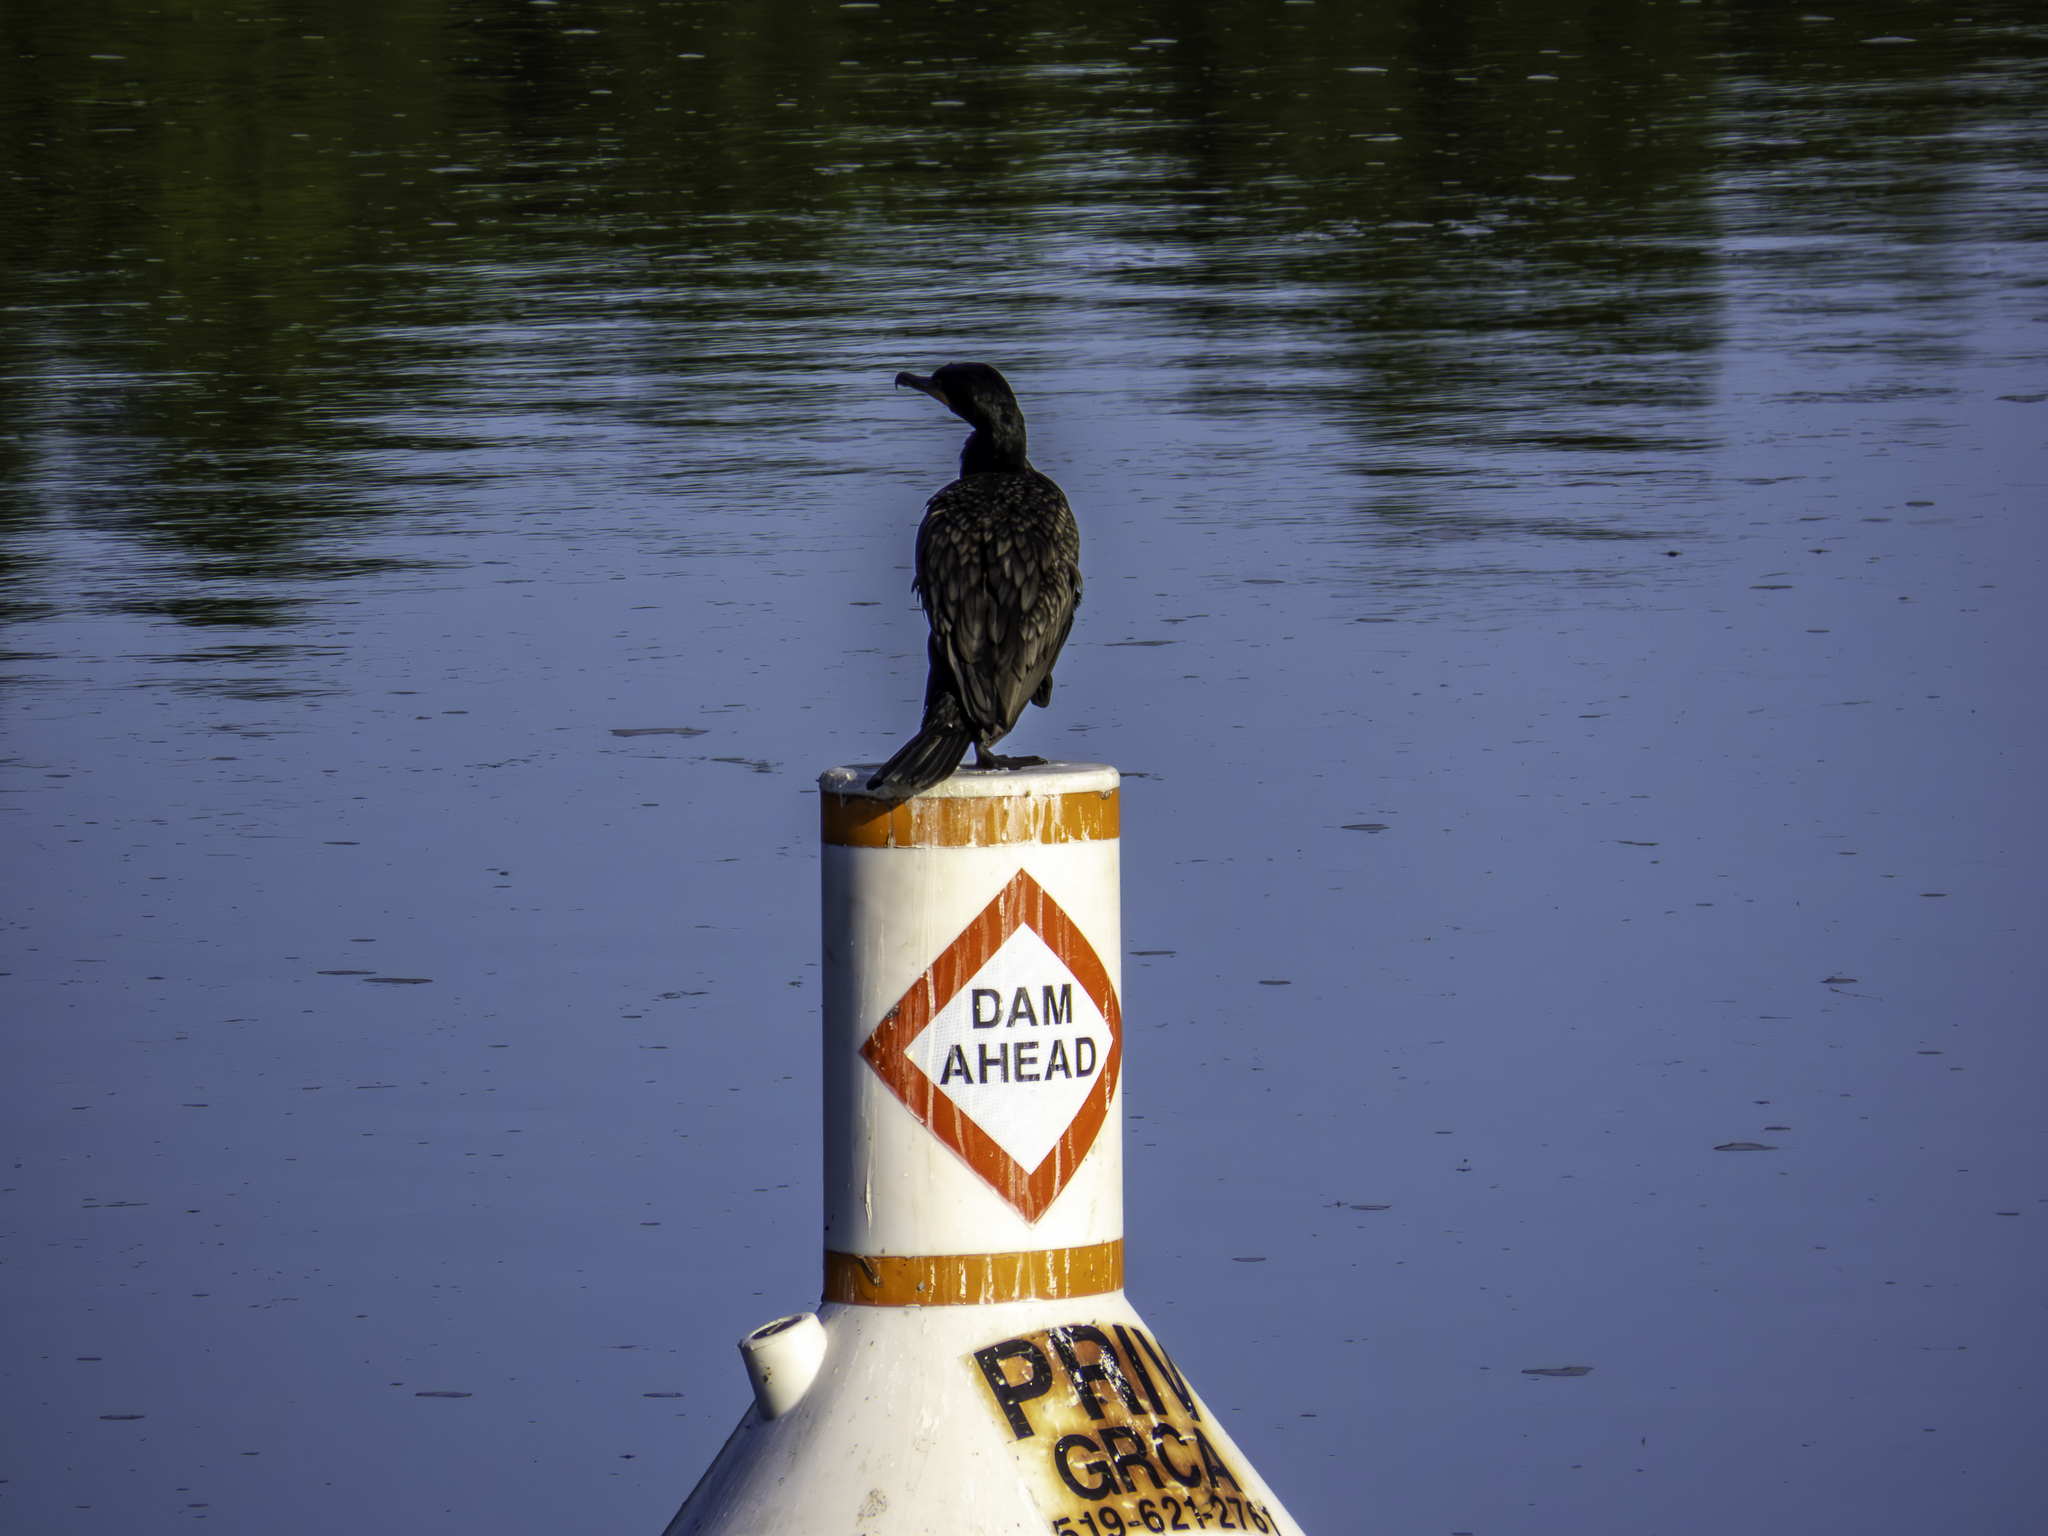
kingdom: Animalia
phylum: Chordata
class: Aves
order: Suliformes
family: Phalacrocoracidae
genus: Phalacrocorax
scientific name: Phalacrocorax auritus
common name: Double-crested cormorant
